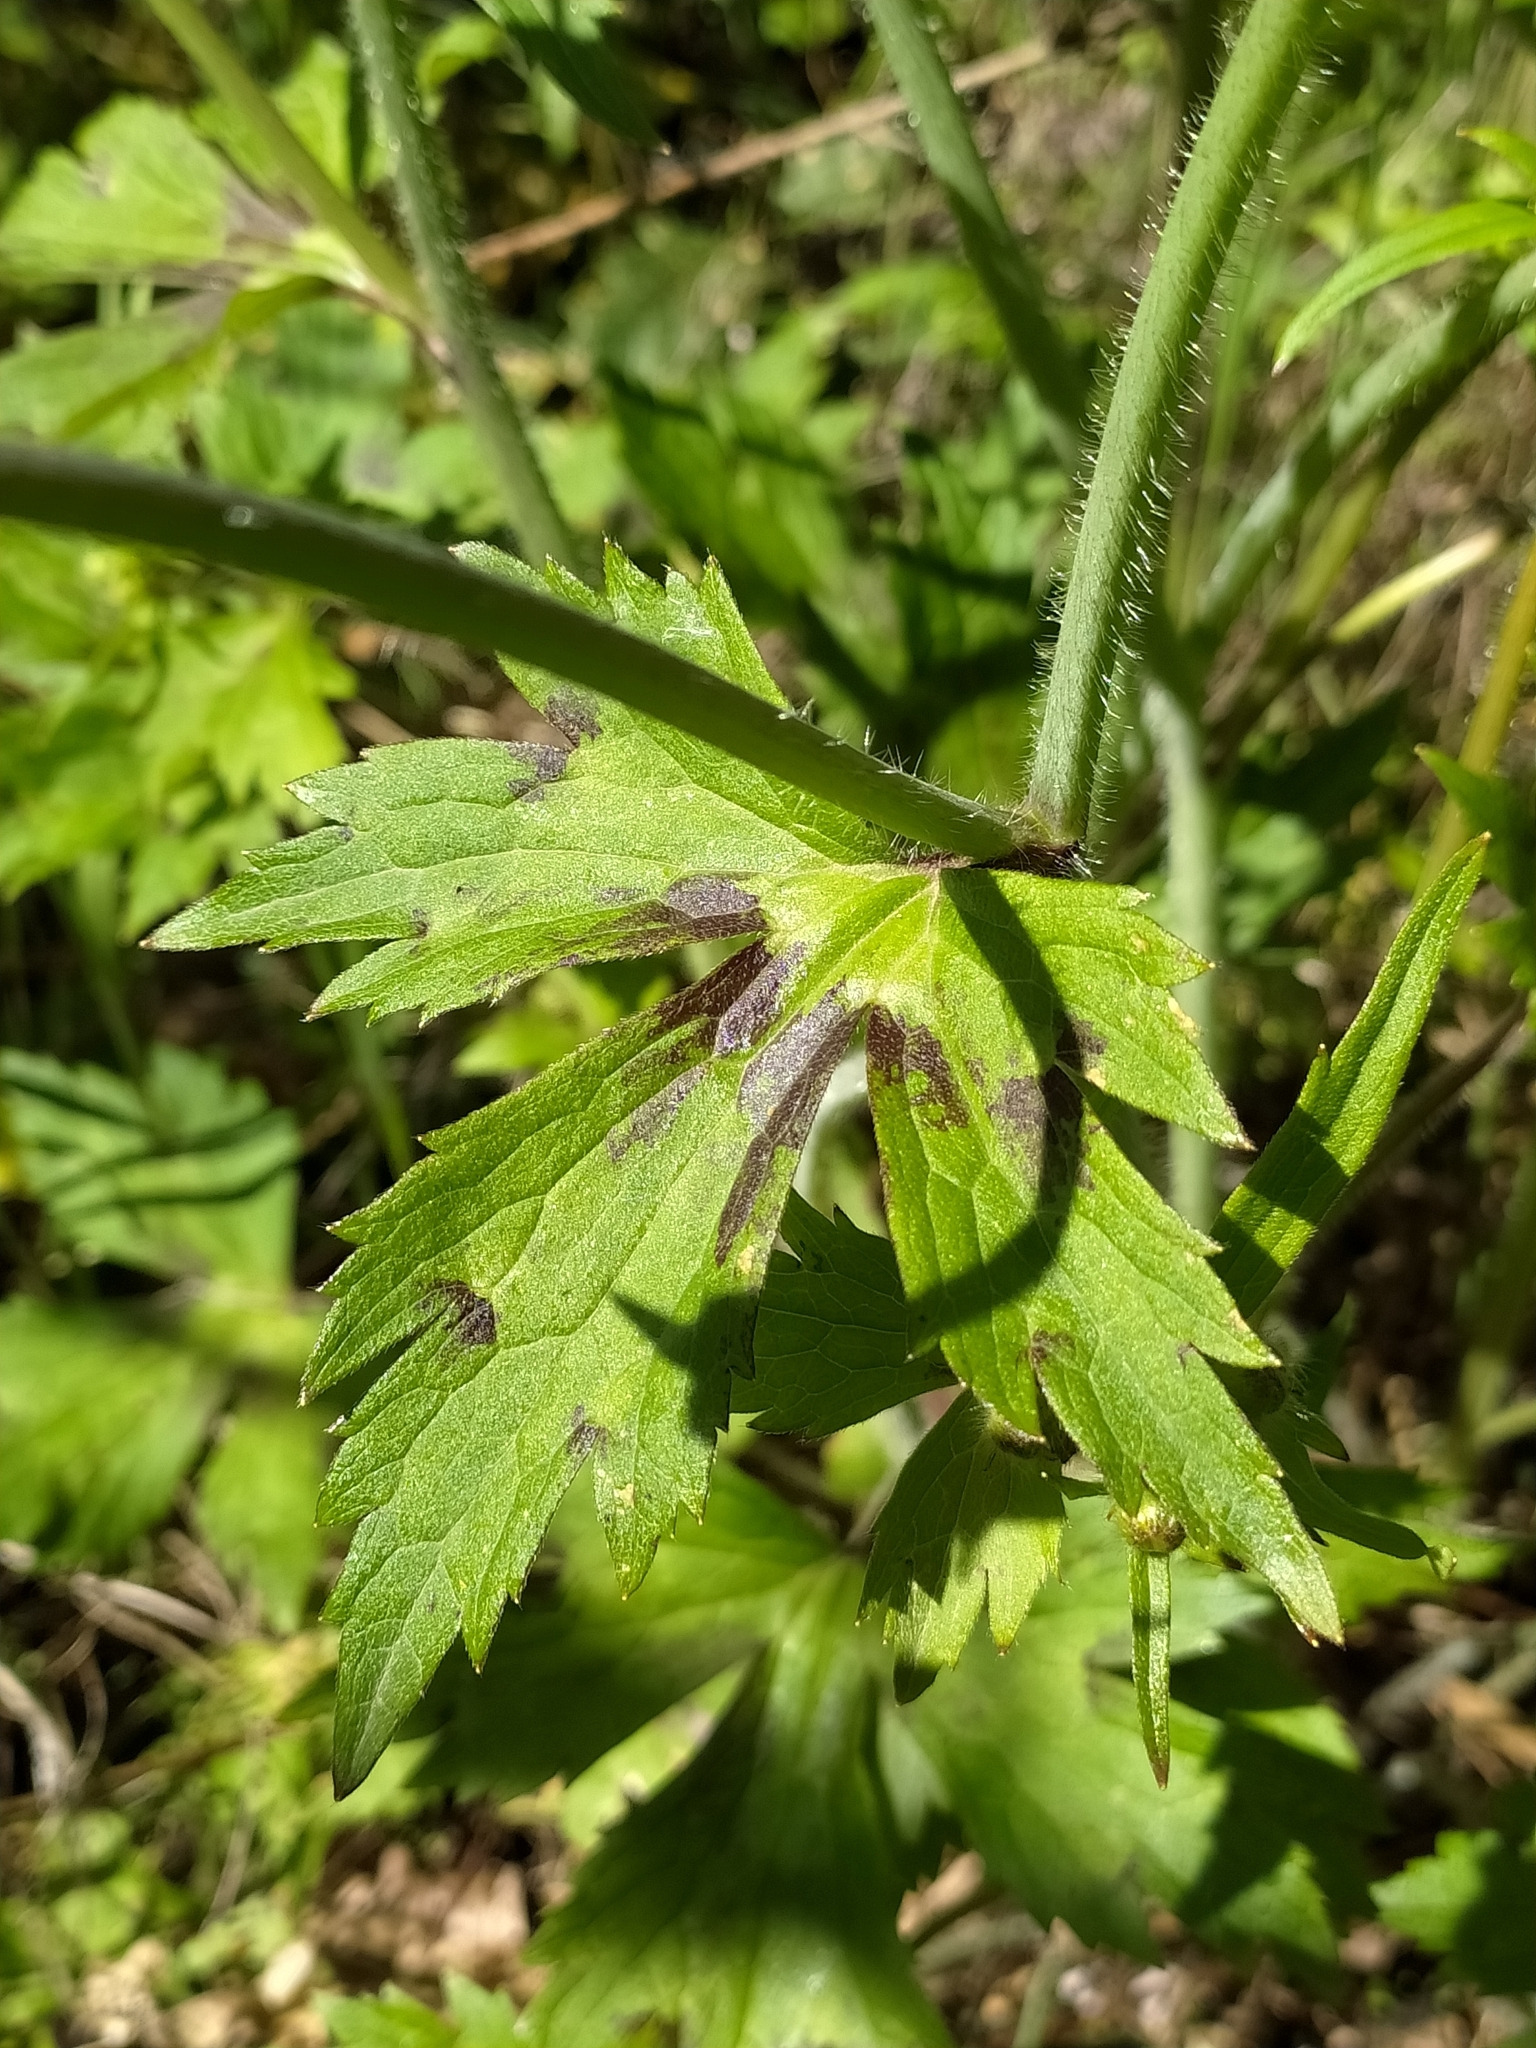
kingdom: Plantae
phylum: Tracheophyta
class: Magnoliopsida
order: Ranunculales
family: Ranunculaceae
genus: Ranunculus
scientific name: Ranunculus lanuginosus
